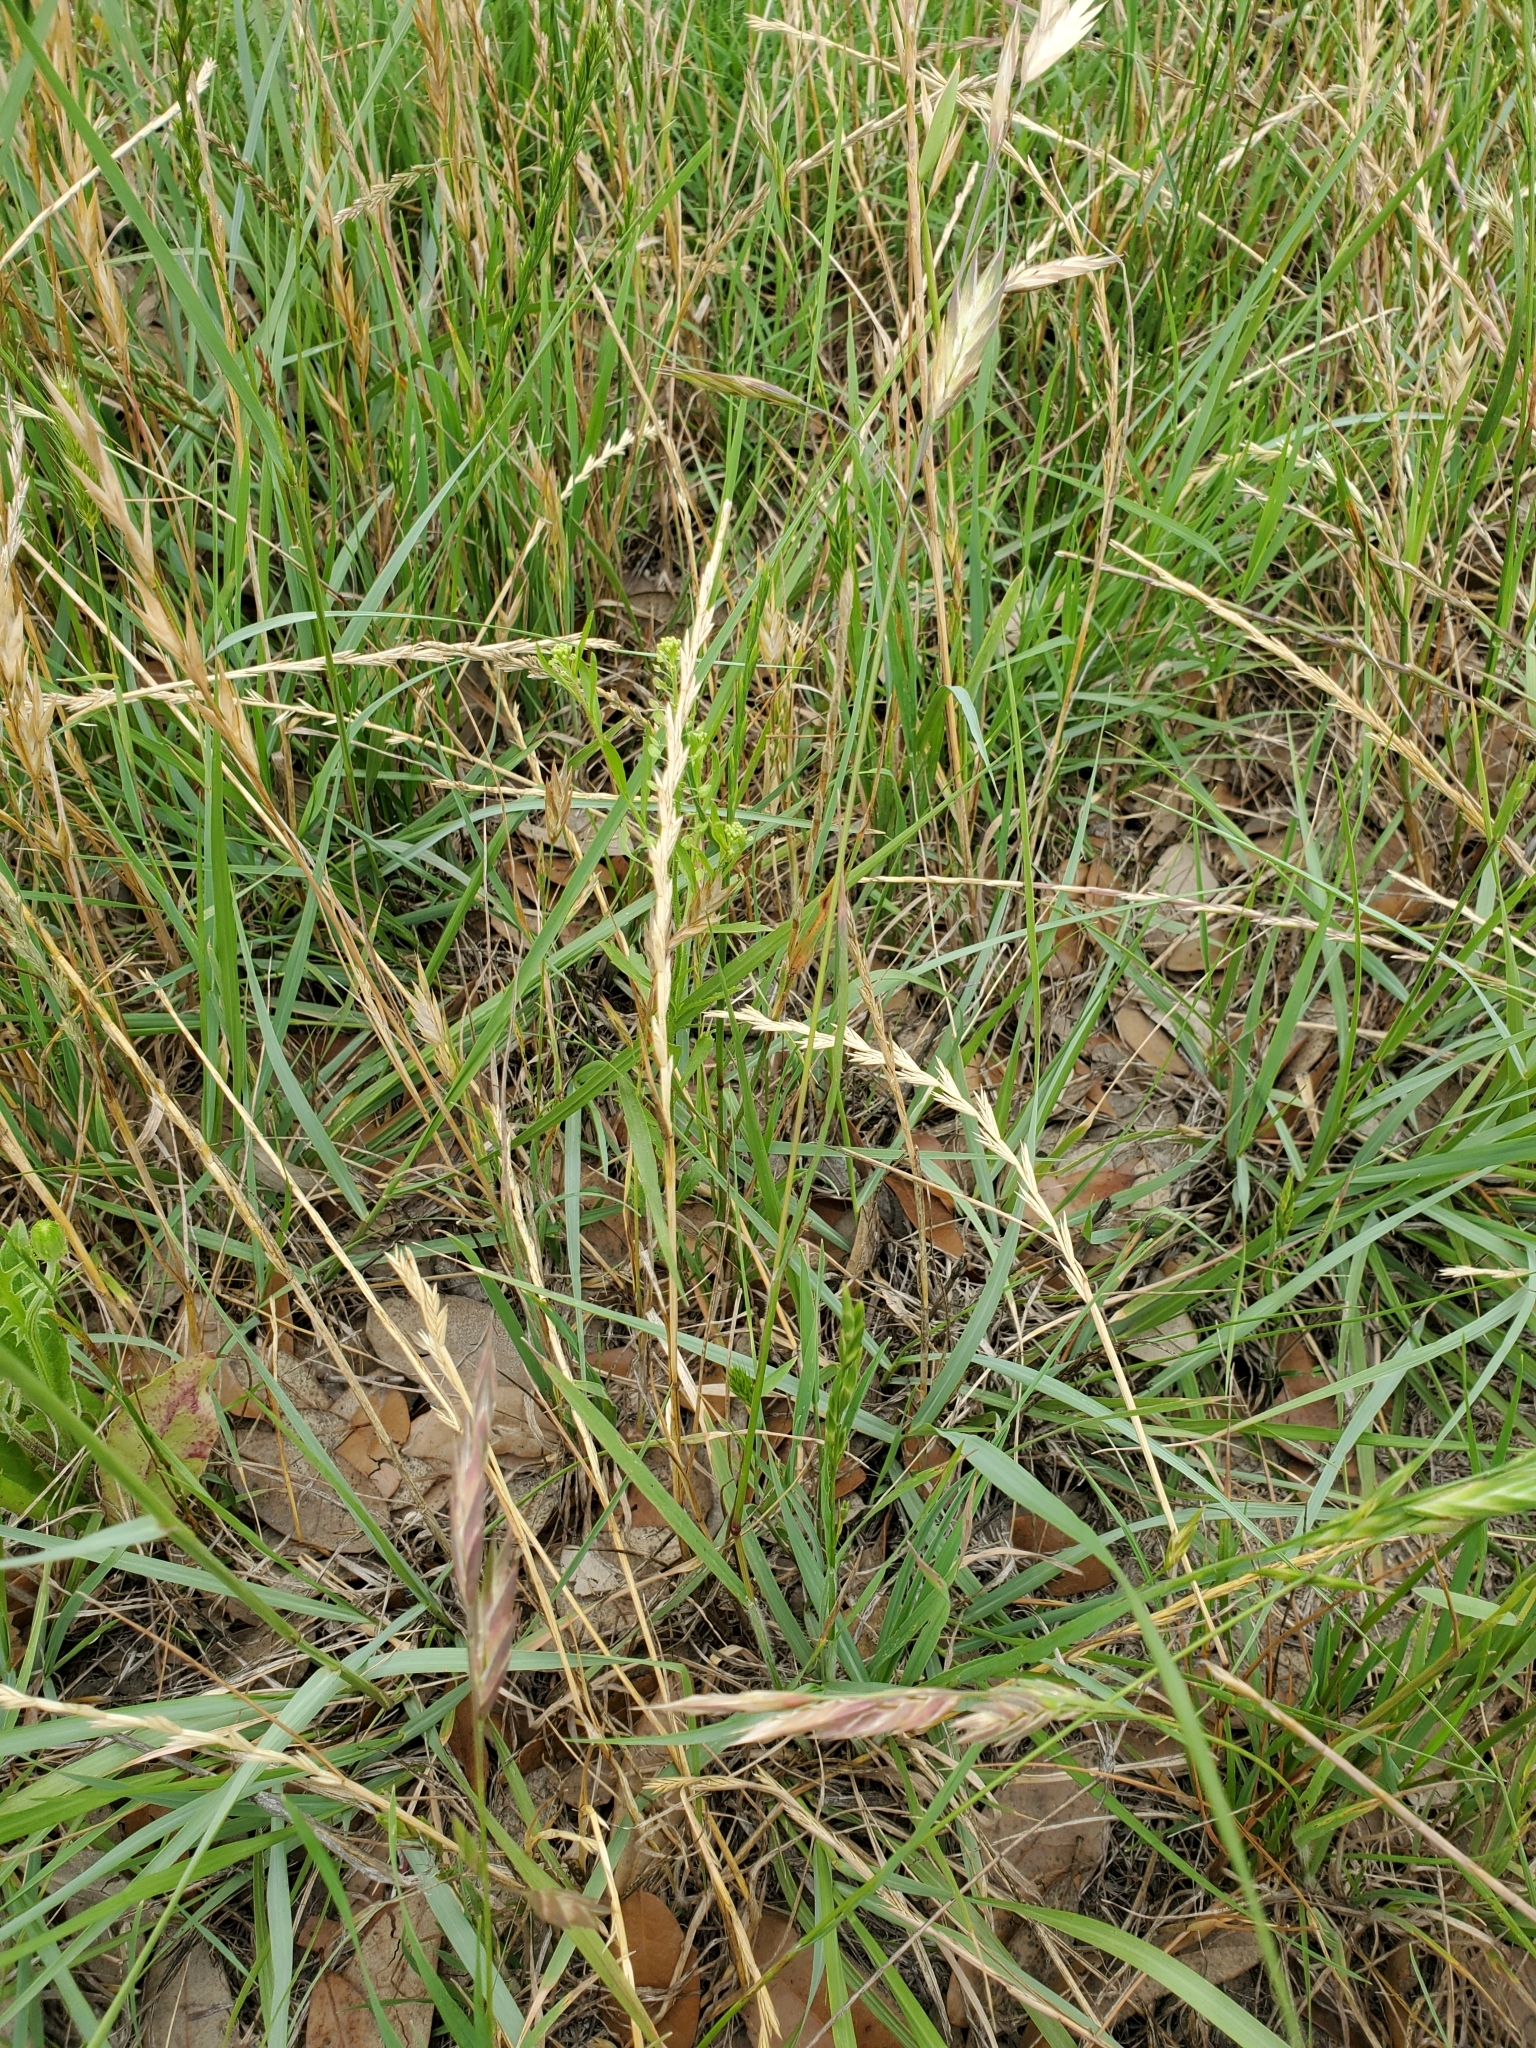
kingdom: Plantae
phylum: Tracheophyta
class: Liliopsida
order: Poales
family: Poaceae
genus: Bromus
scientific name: Bromus catharticus
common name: Rescuegrass
